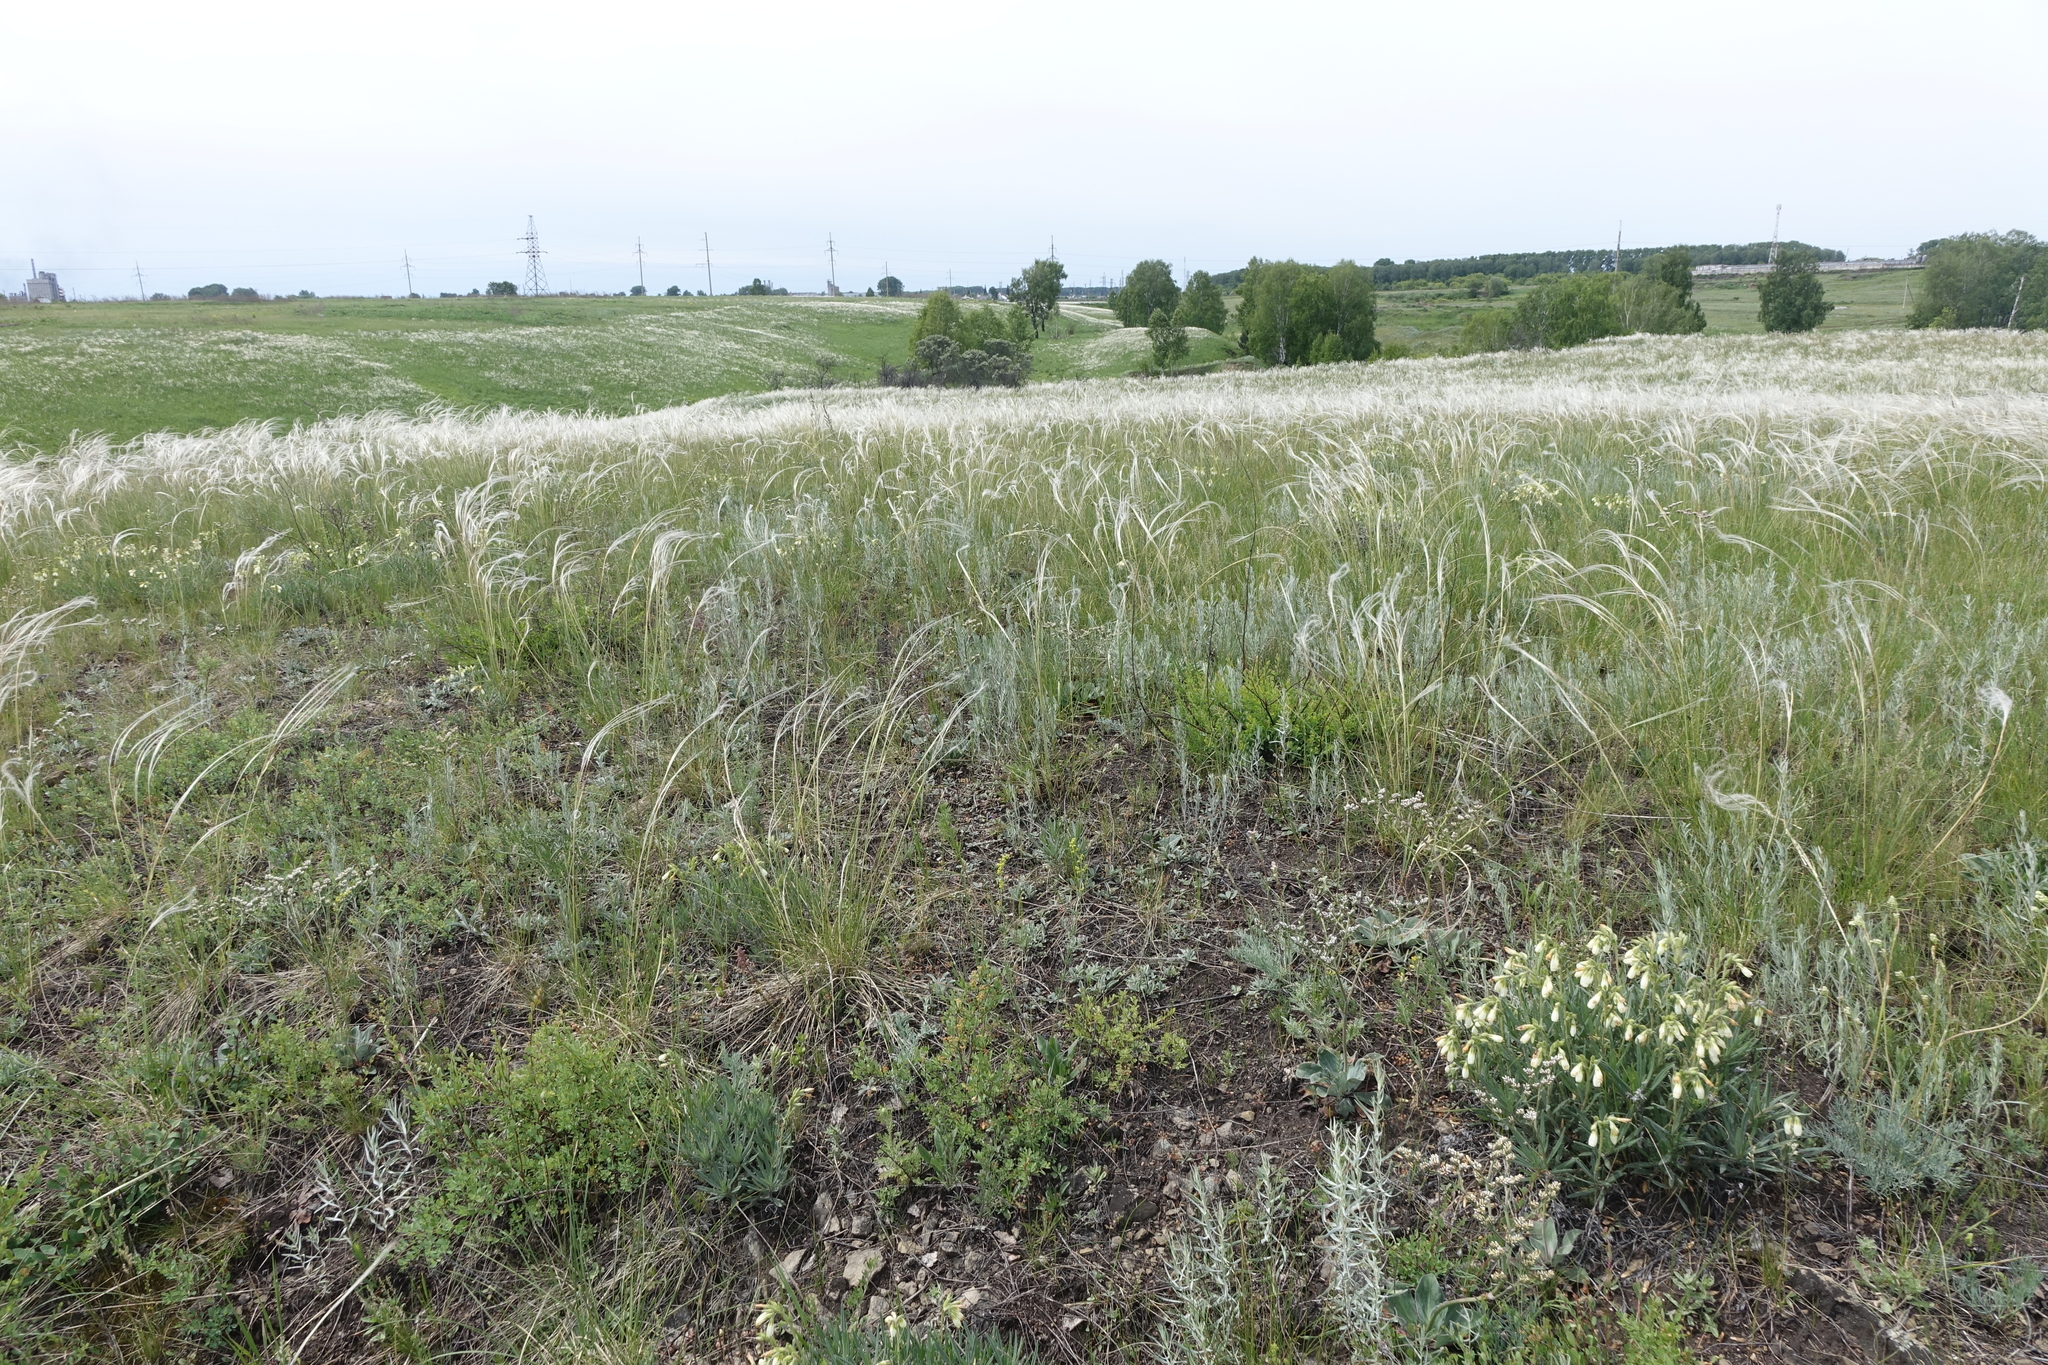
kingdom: Plantae
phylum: Tracheophyta
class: Magnoliopsida
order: Boraginales
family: Boraginaceae
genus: Onosma
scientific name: Onosma simplicissima
